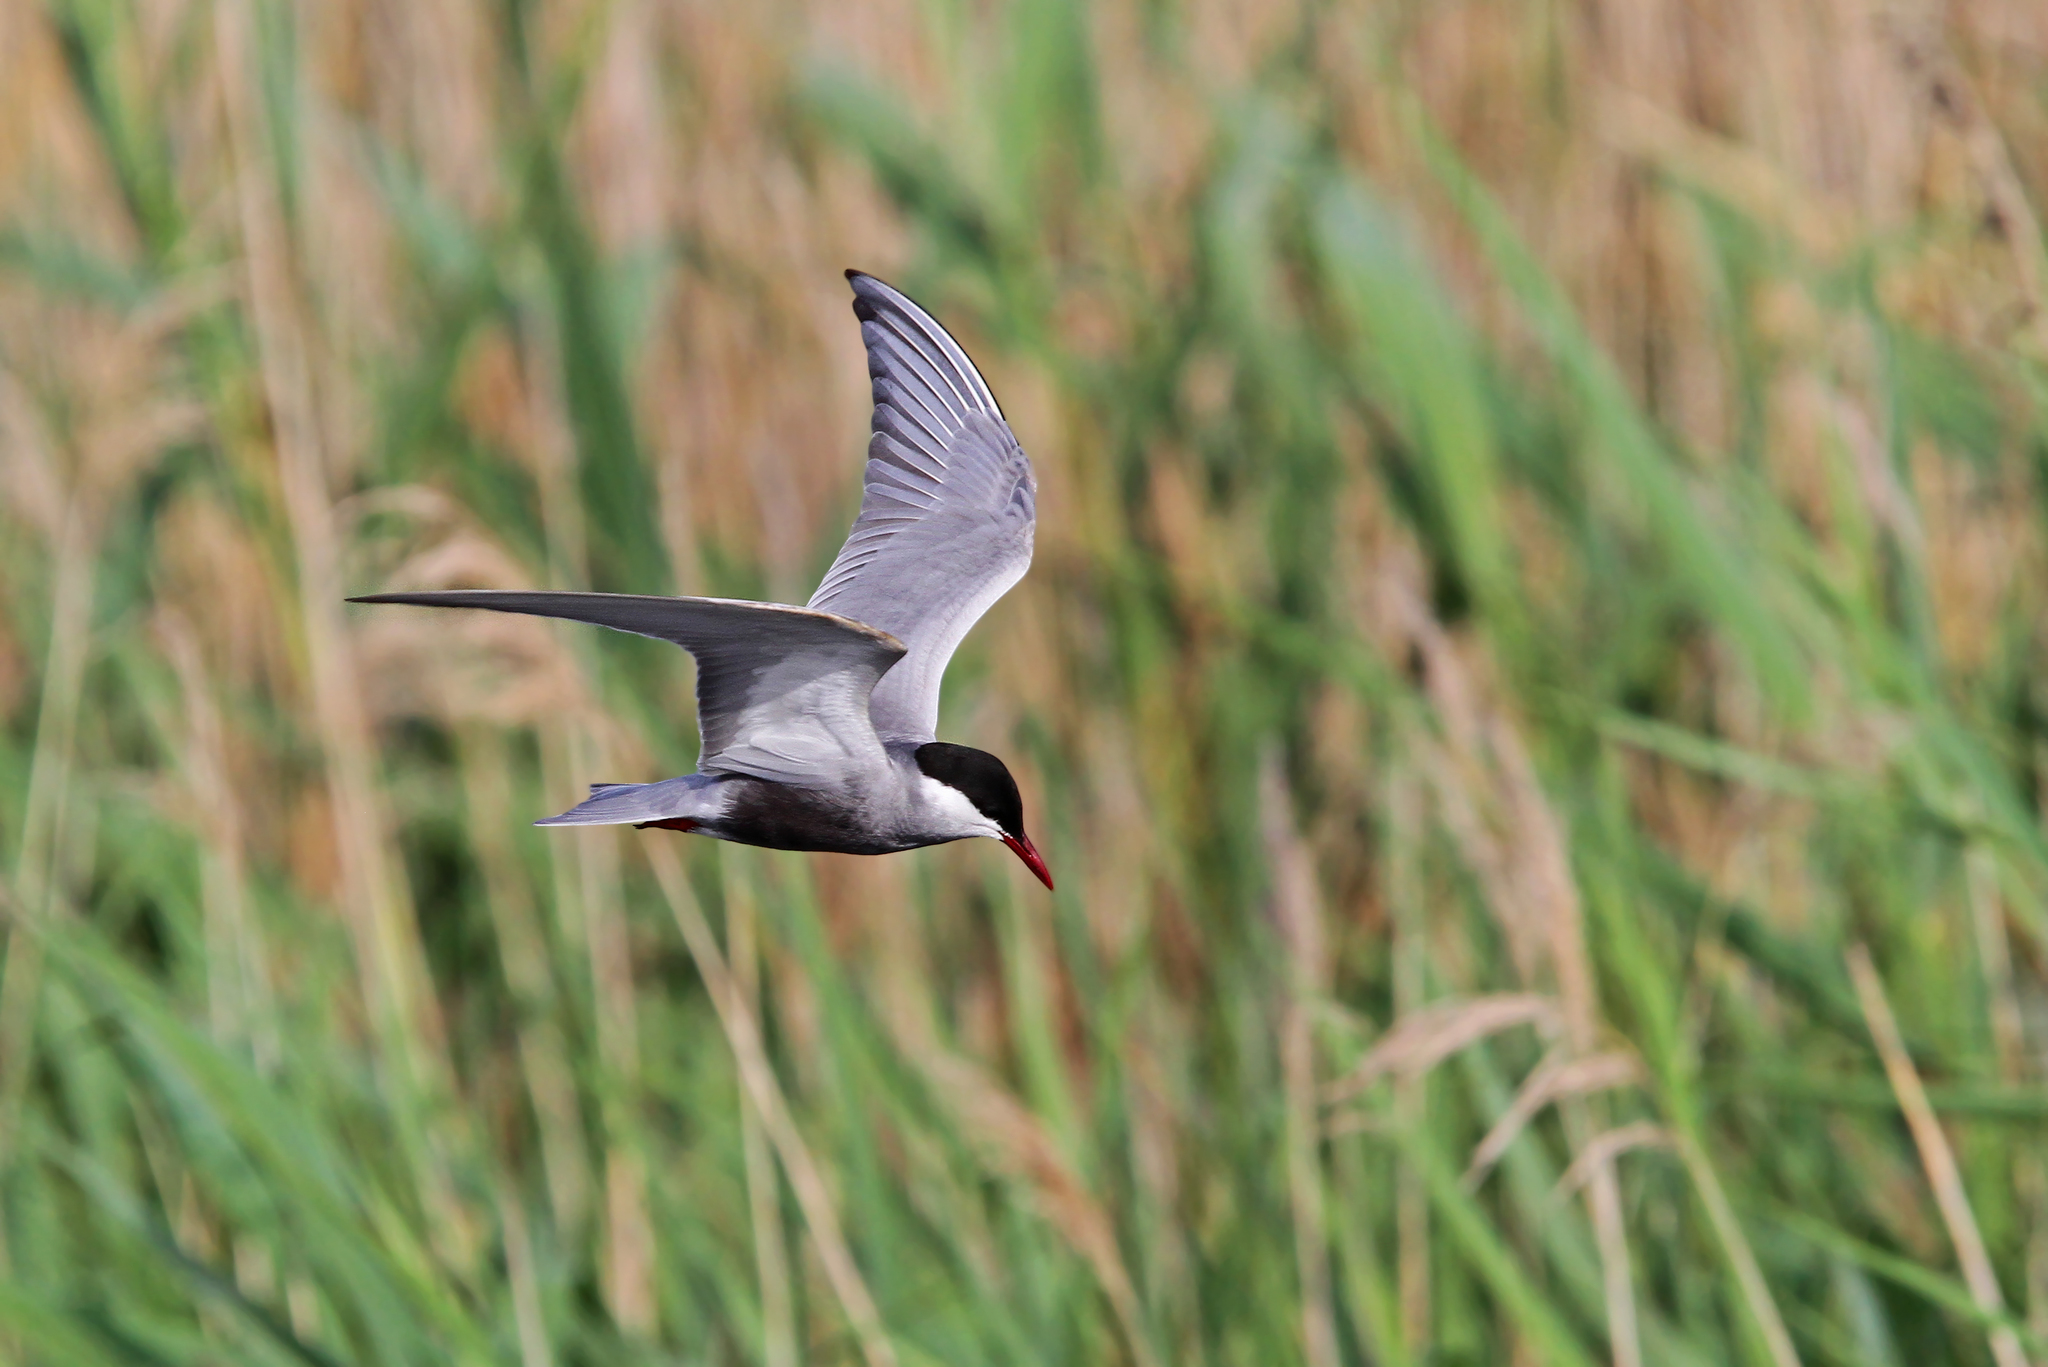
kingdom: Animalia
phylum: Chordata
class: Aves
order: Charadriiformes
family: Laridae
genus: Chlidonias
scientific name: Chlidonias hybrida
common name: Whiskered tern
